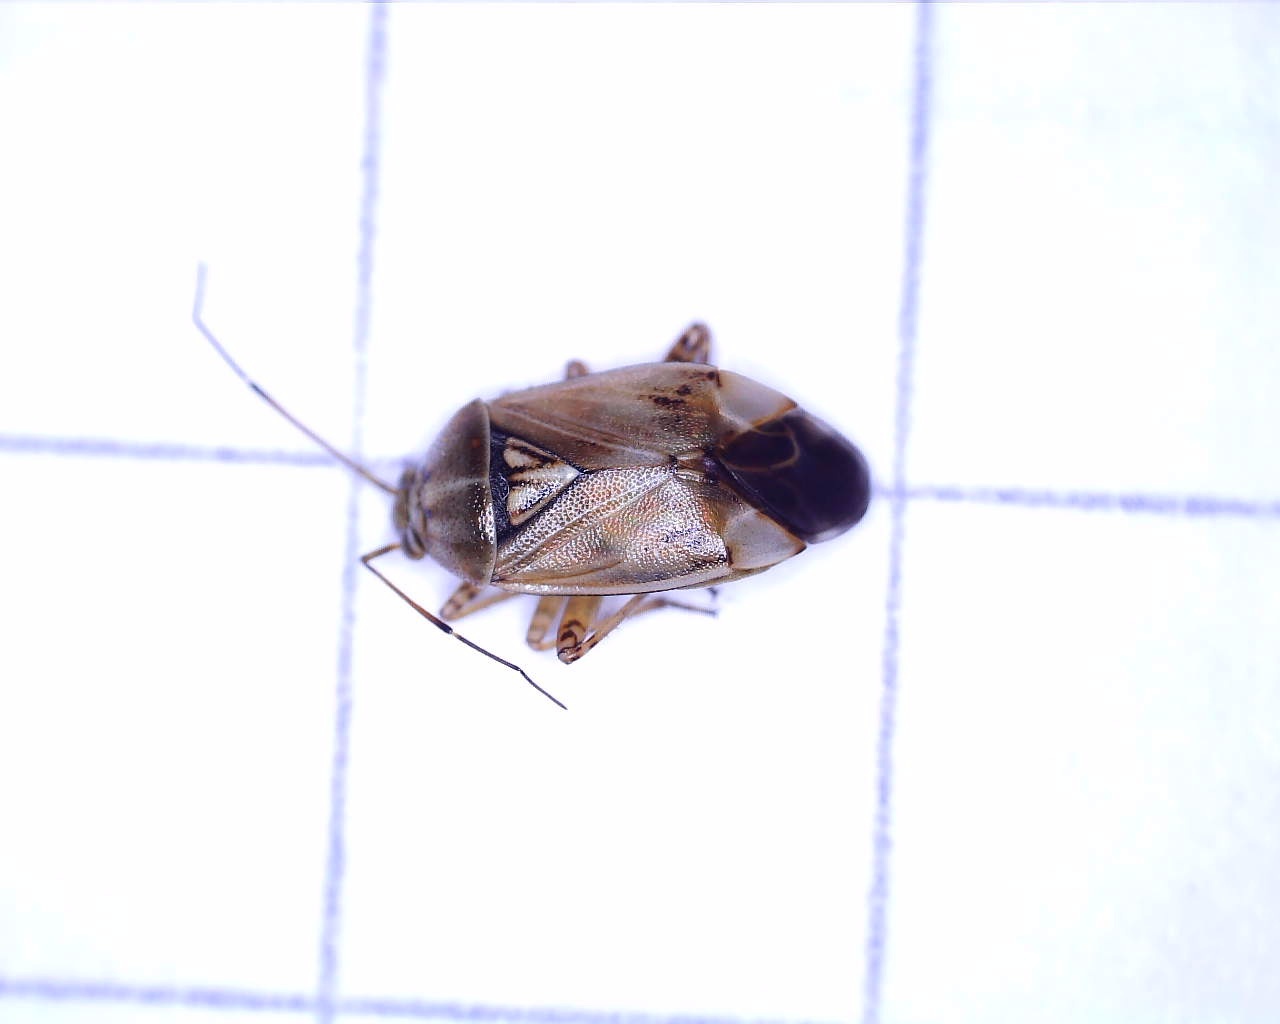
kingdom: Animalia
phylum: Arthropoda
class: Insecta
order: Hemiptera
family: Miridae
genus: Lygus
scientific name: Lygus wagneri
